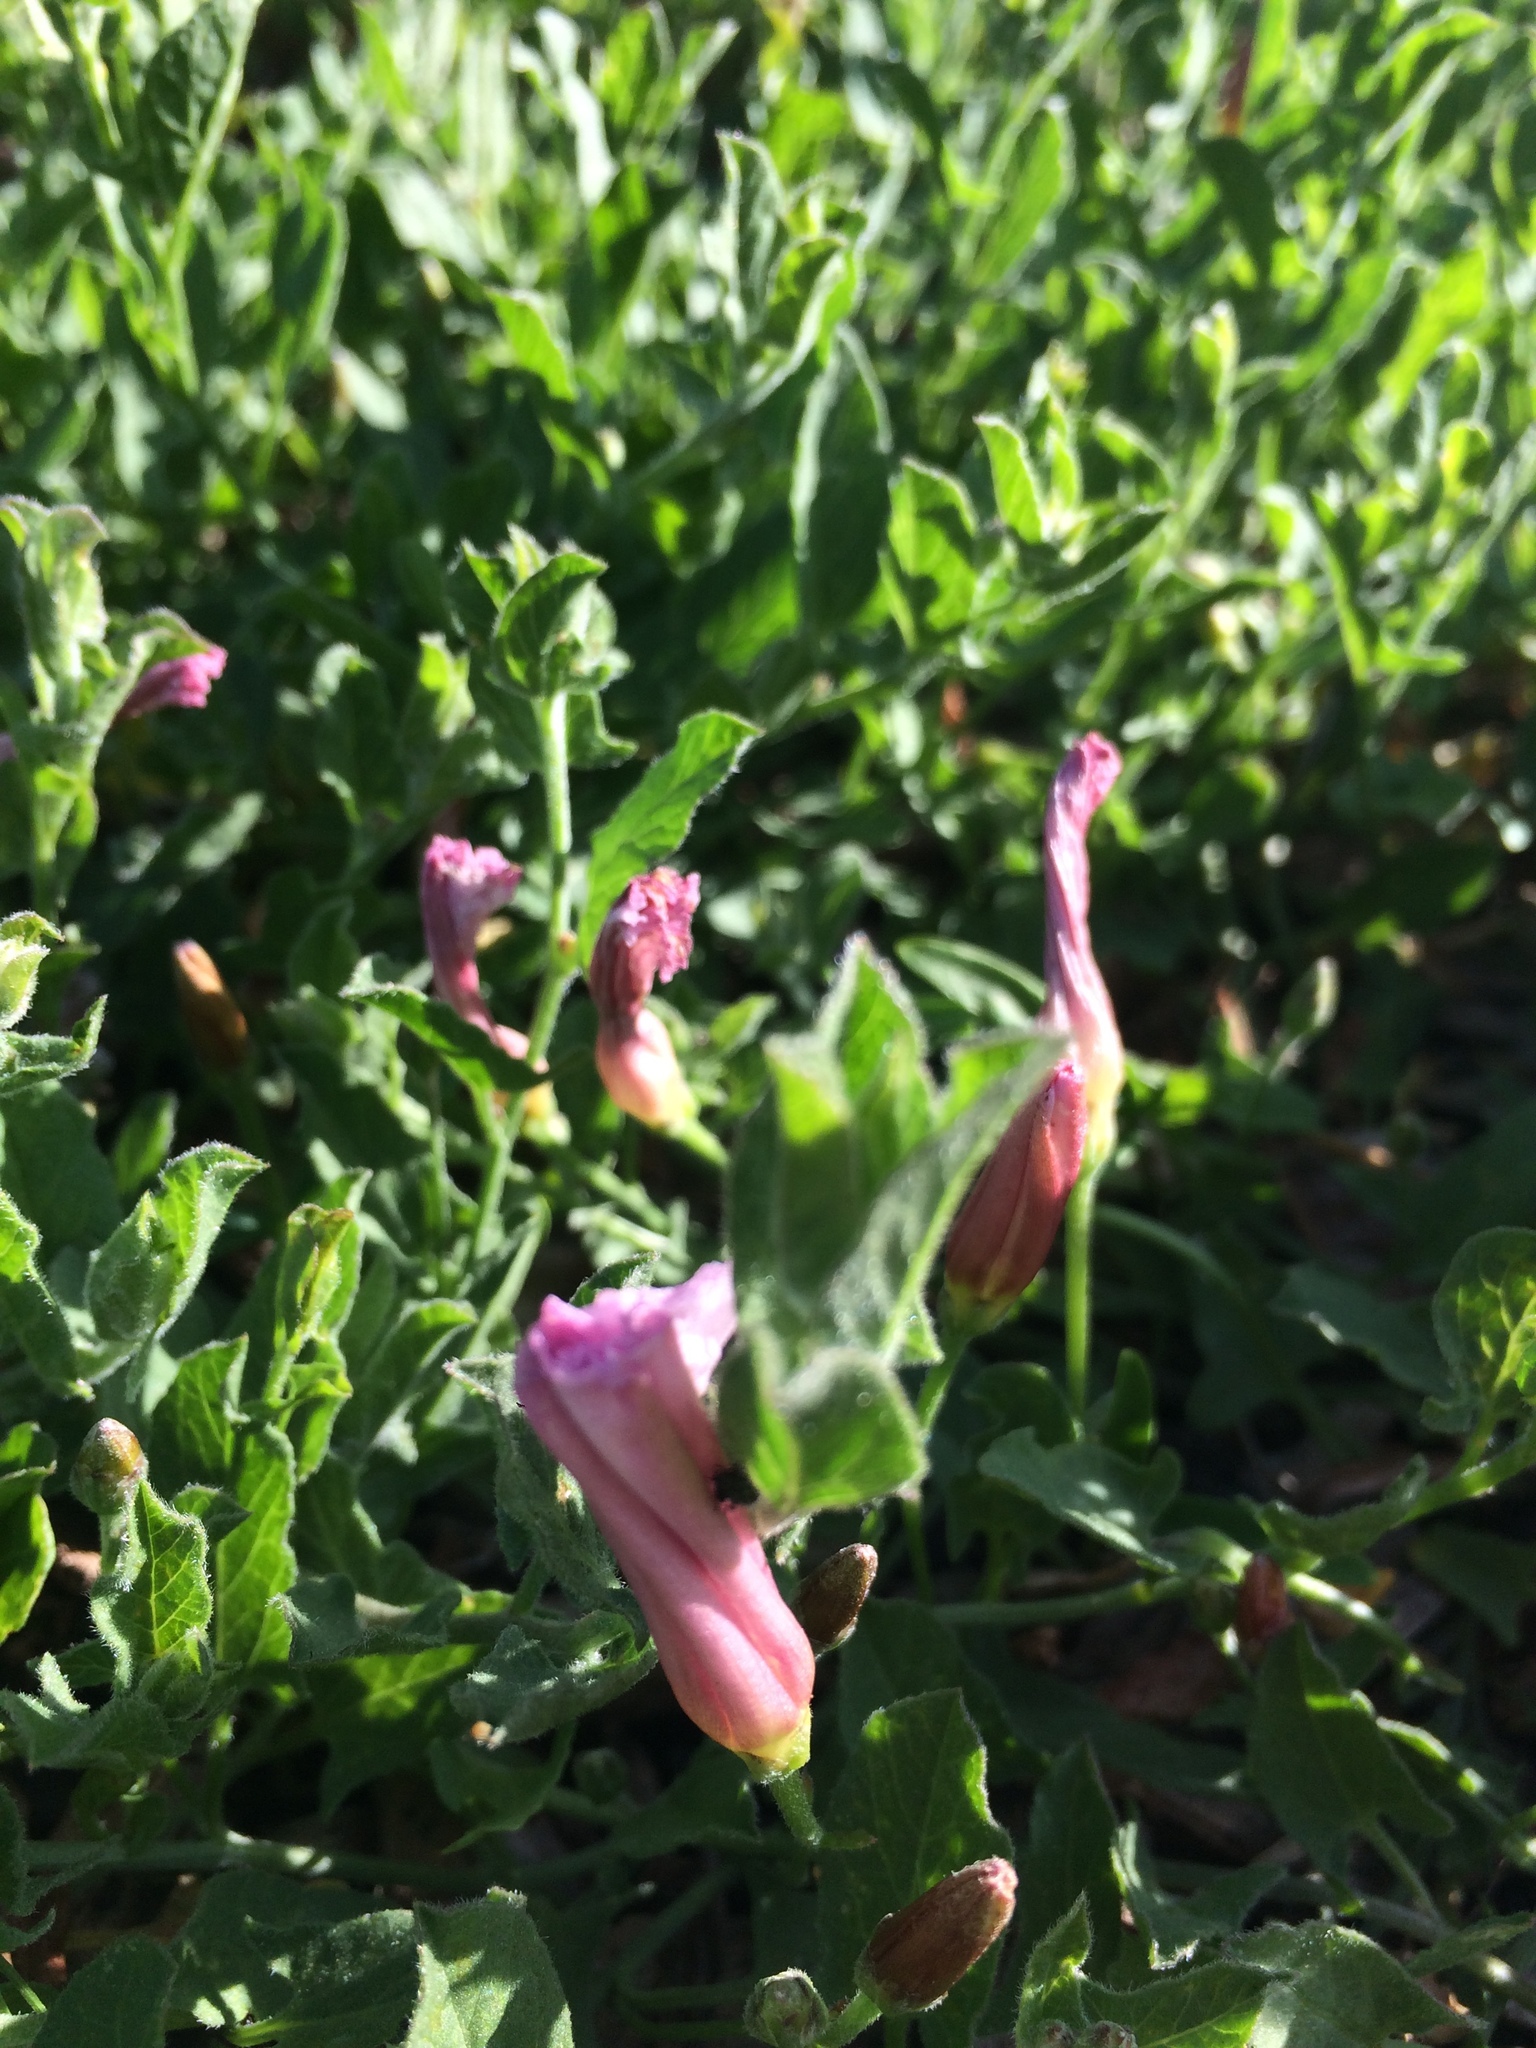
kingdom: Plantae
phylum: Tracheophyta
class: Magnoliopsida
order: Solanales
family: Convolvulaceae
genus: Convolvulus
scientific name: Convolvulus arvensis
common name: Field bindweed
